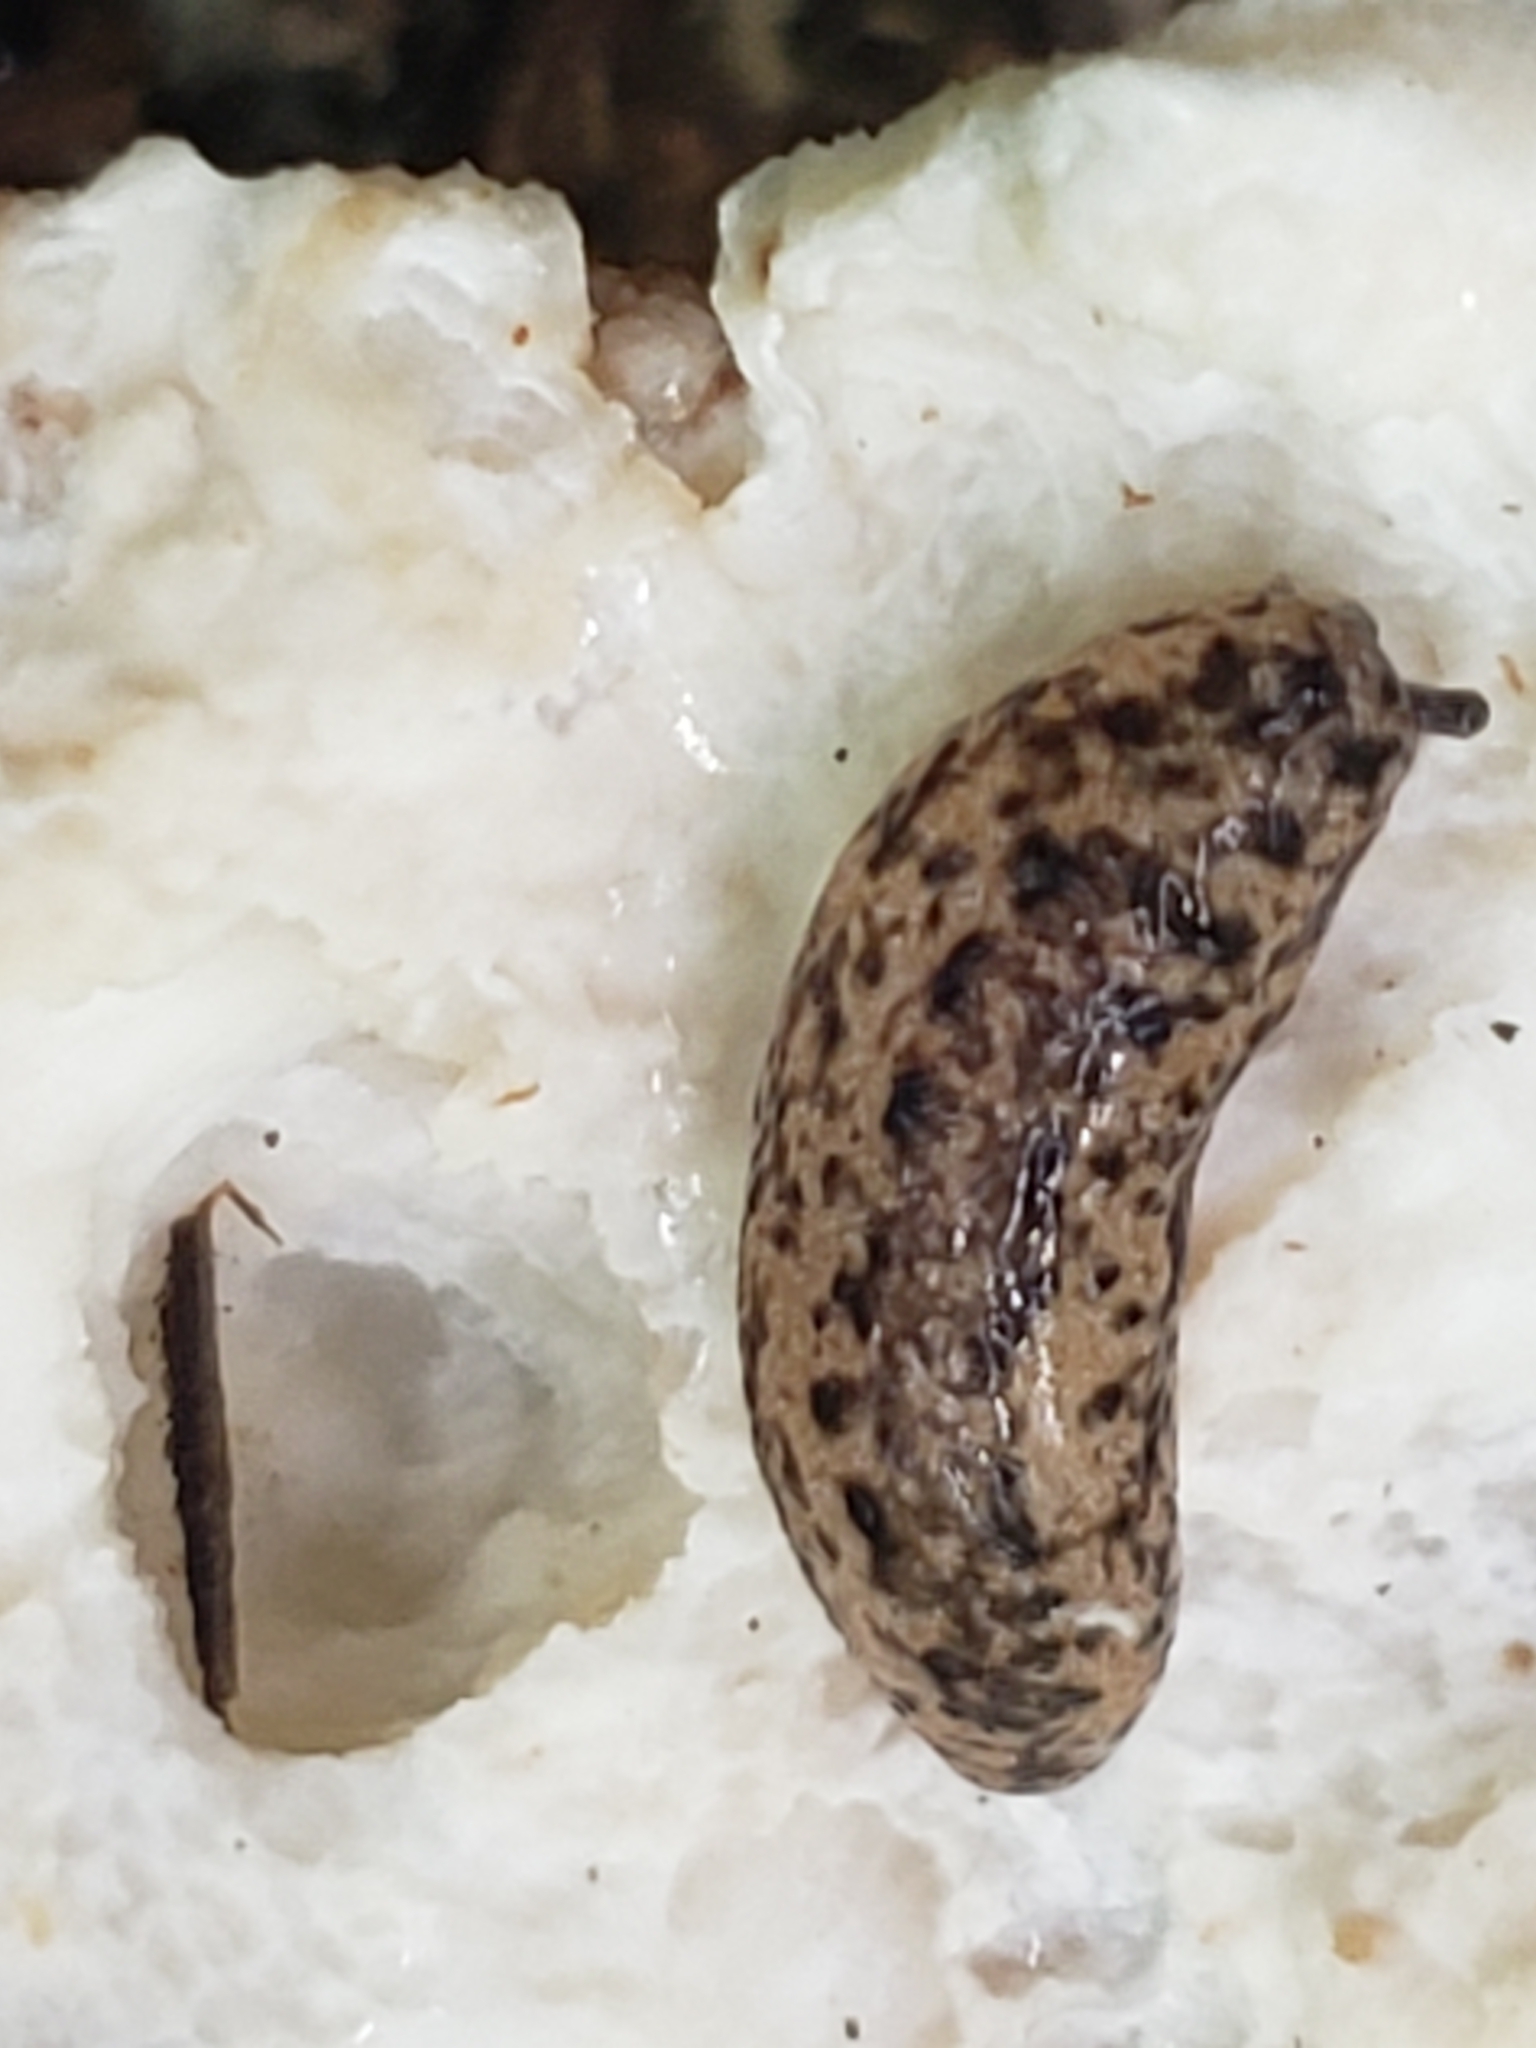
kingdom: Animalia
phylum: Mollusca
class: Gastropoda
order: Stylommatophora
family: Philomycidae
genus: Philomycus
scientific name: Philomycus carolinianus
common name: Carolina mantleslug
